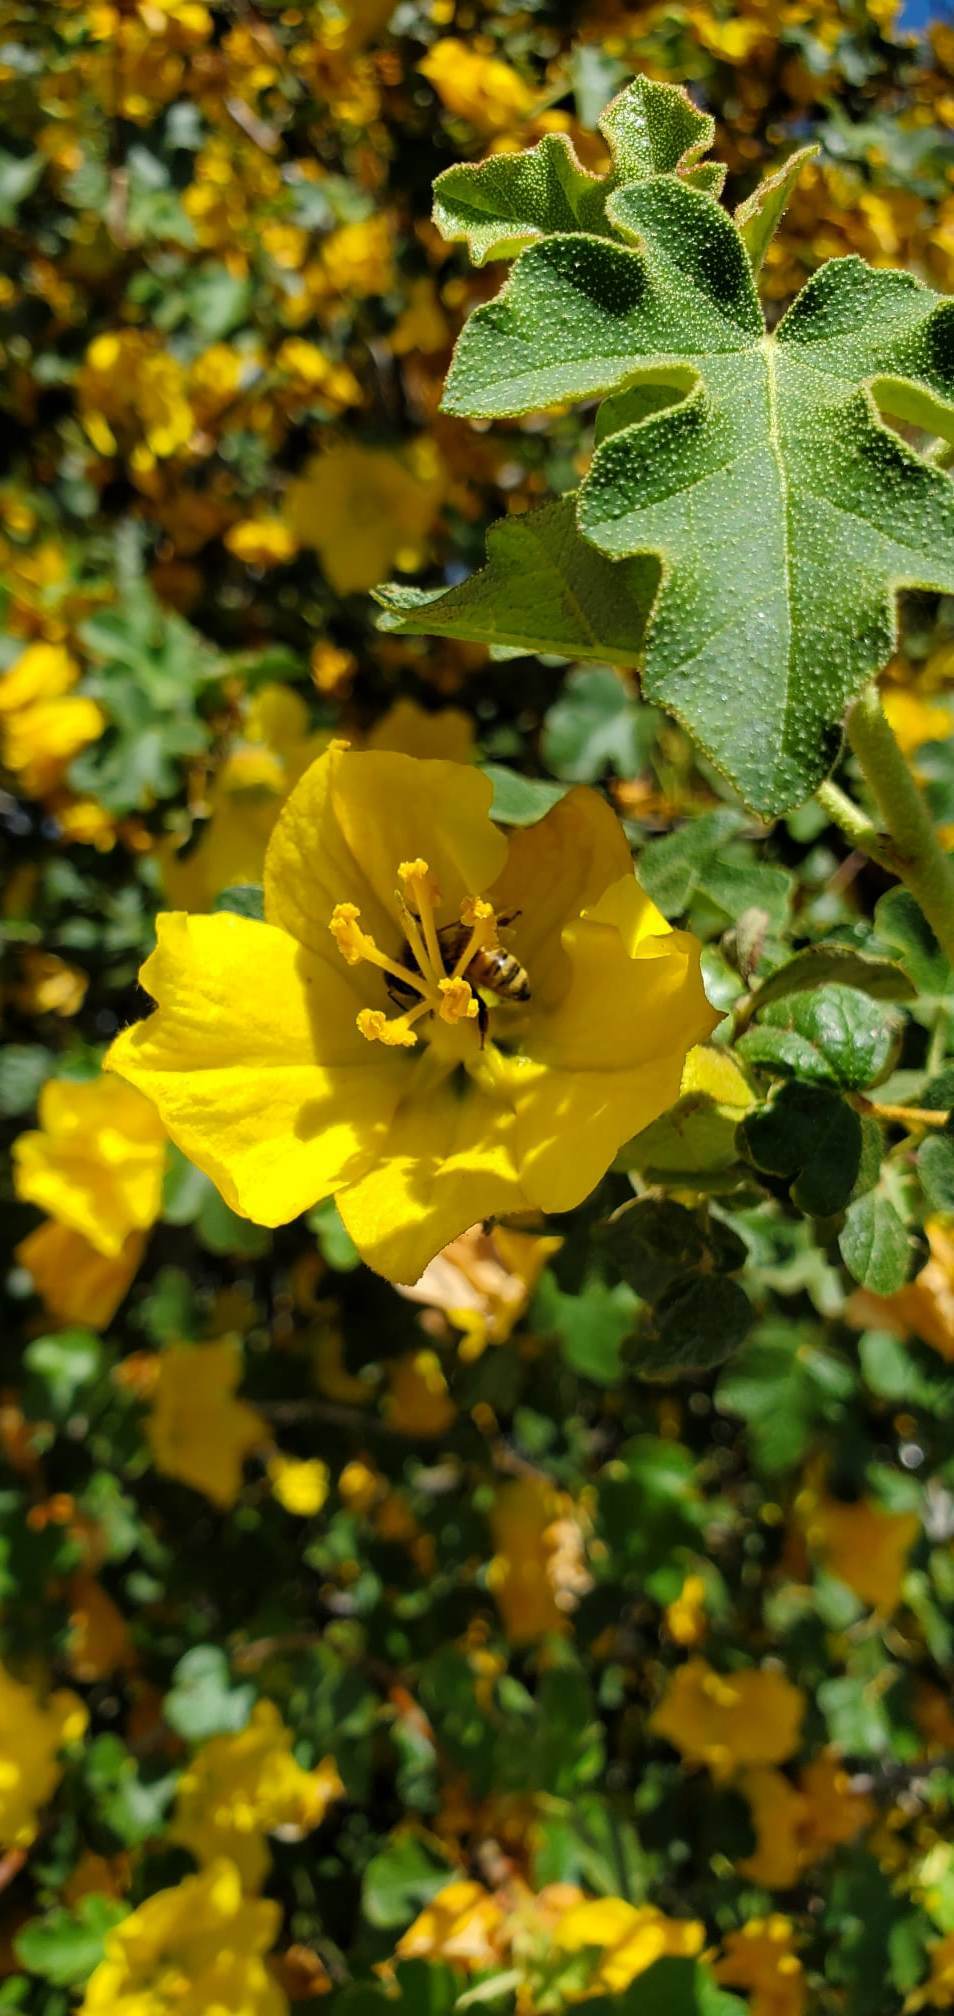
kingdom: Plantae
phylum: Tracheophyta
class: Magnoliopsida
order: Malvales
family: Malvaceae
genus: Fremontodendron
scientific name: Fremontodendron californicum
